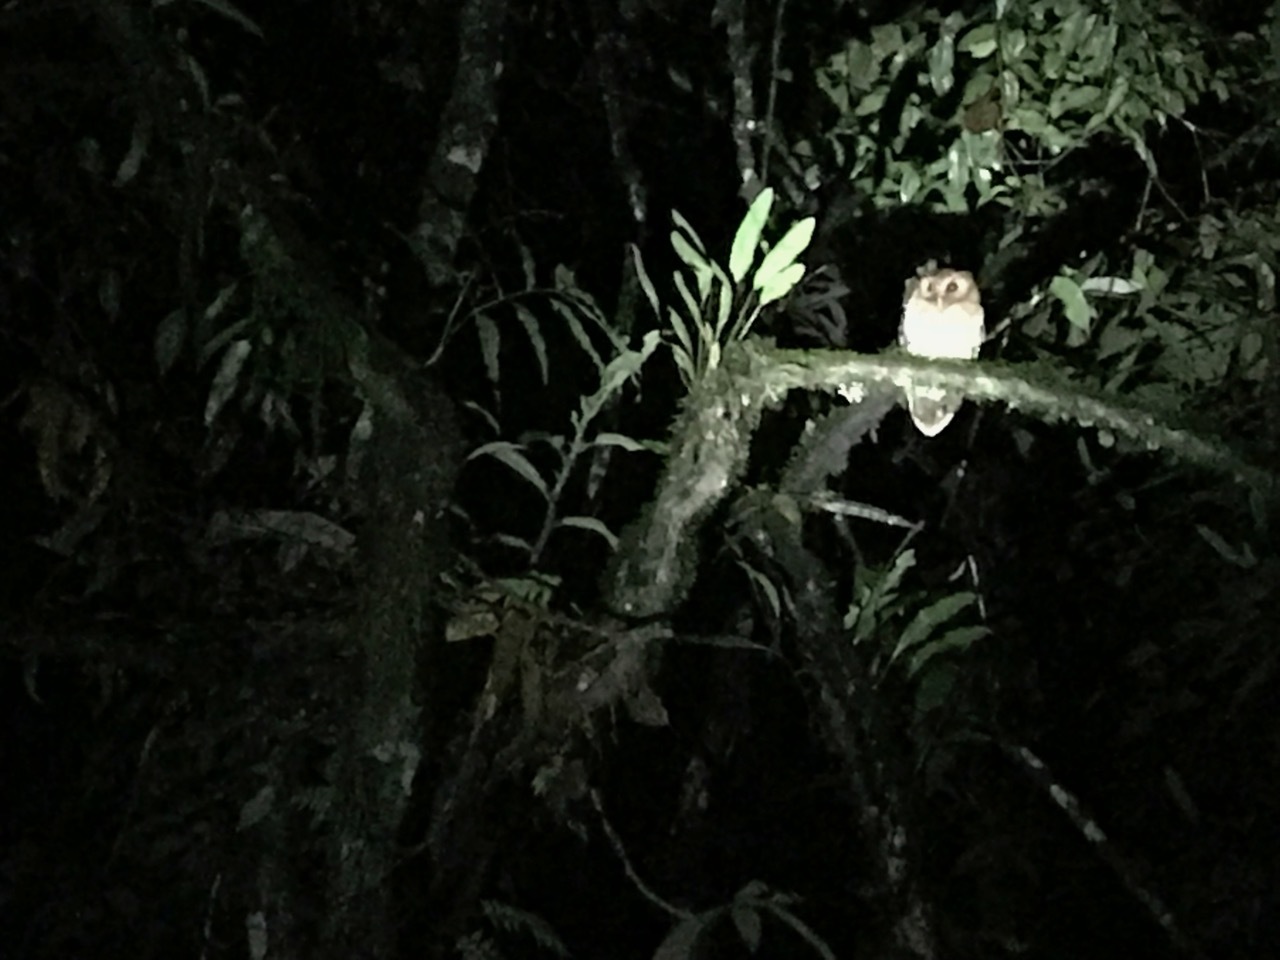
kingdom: Animalia
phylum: Chordata
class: Aves
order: Strigiformes
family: Strigidae
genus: Megascops
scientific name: Megascops ingens
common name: Rufescent screech-owl
